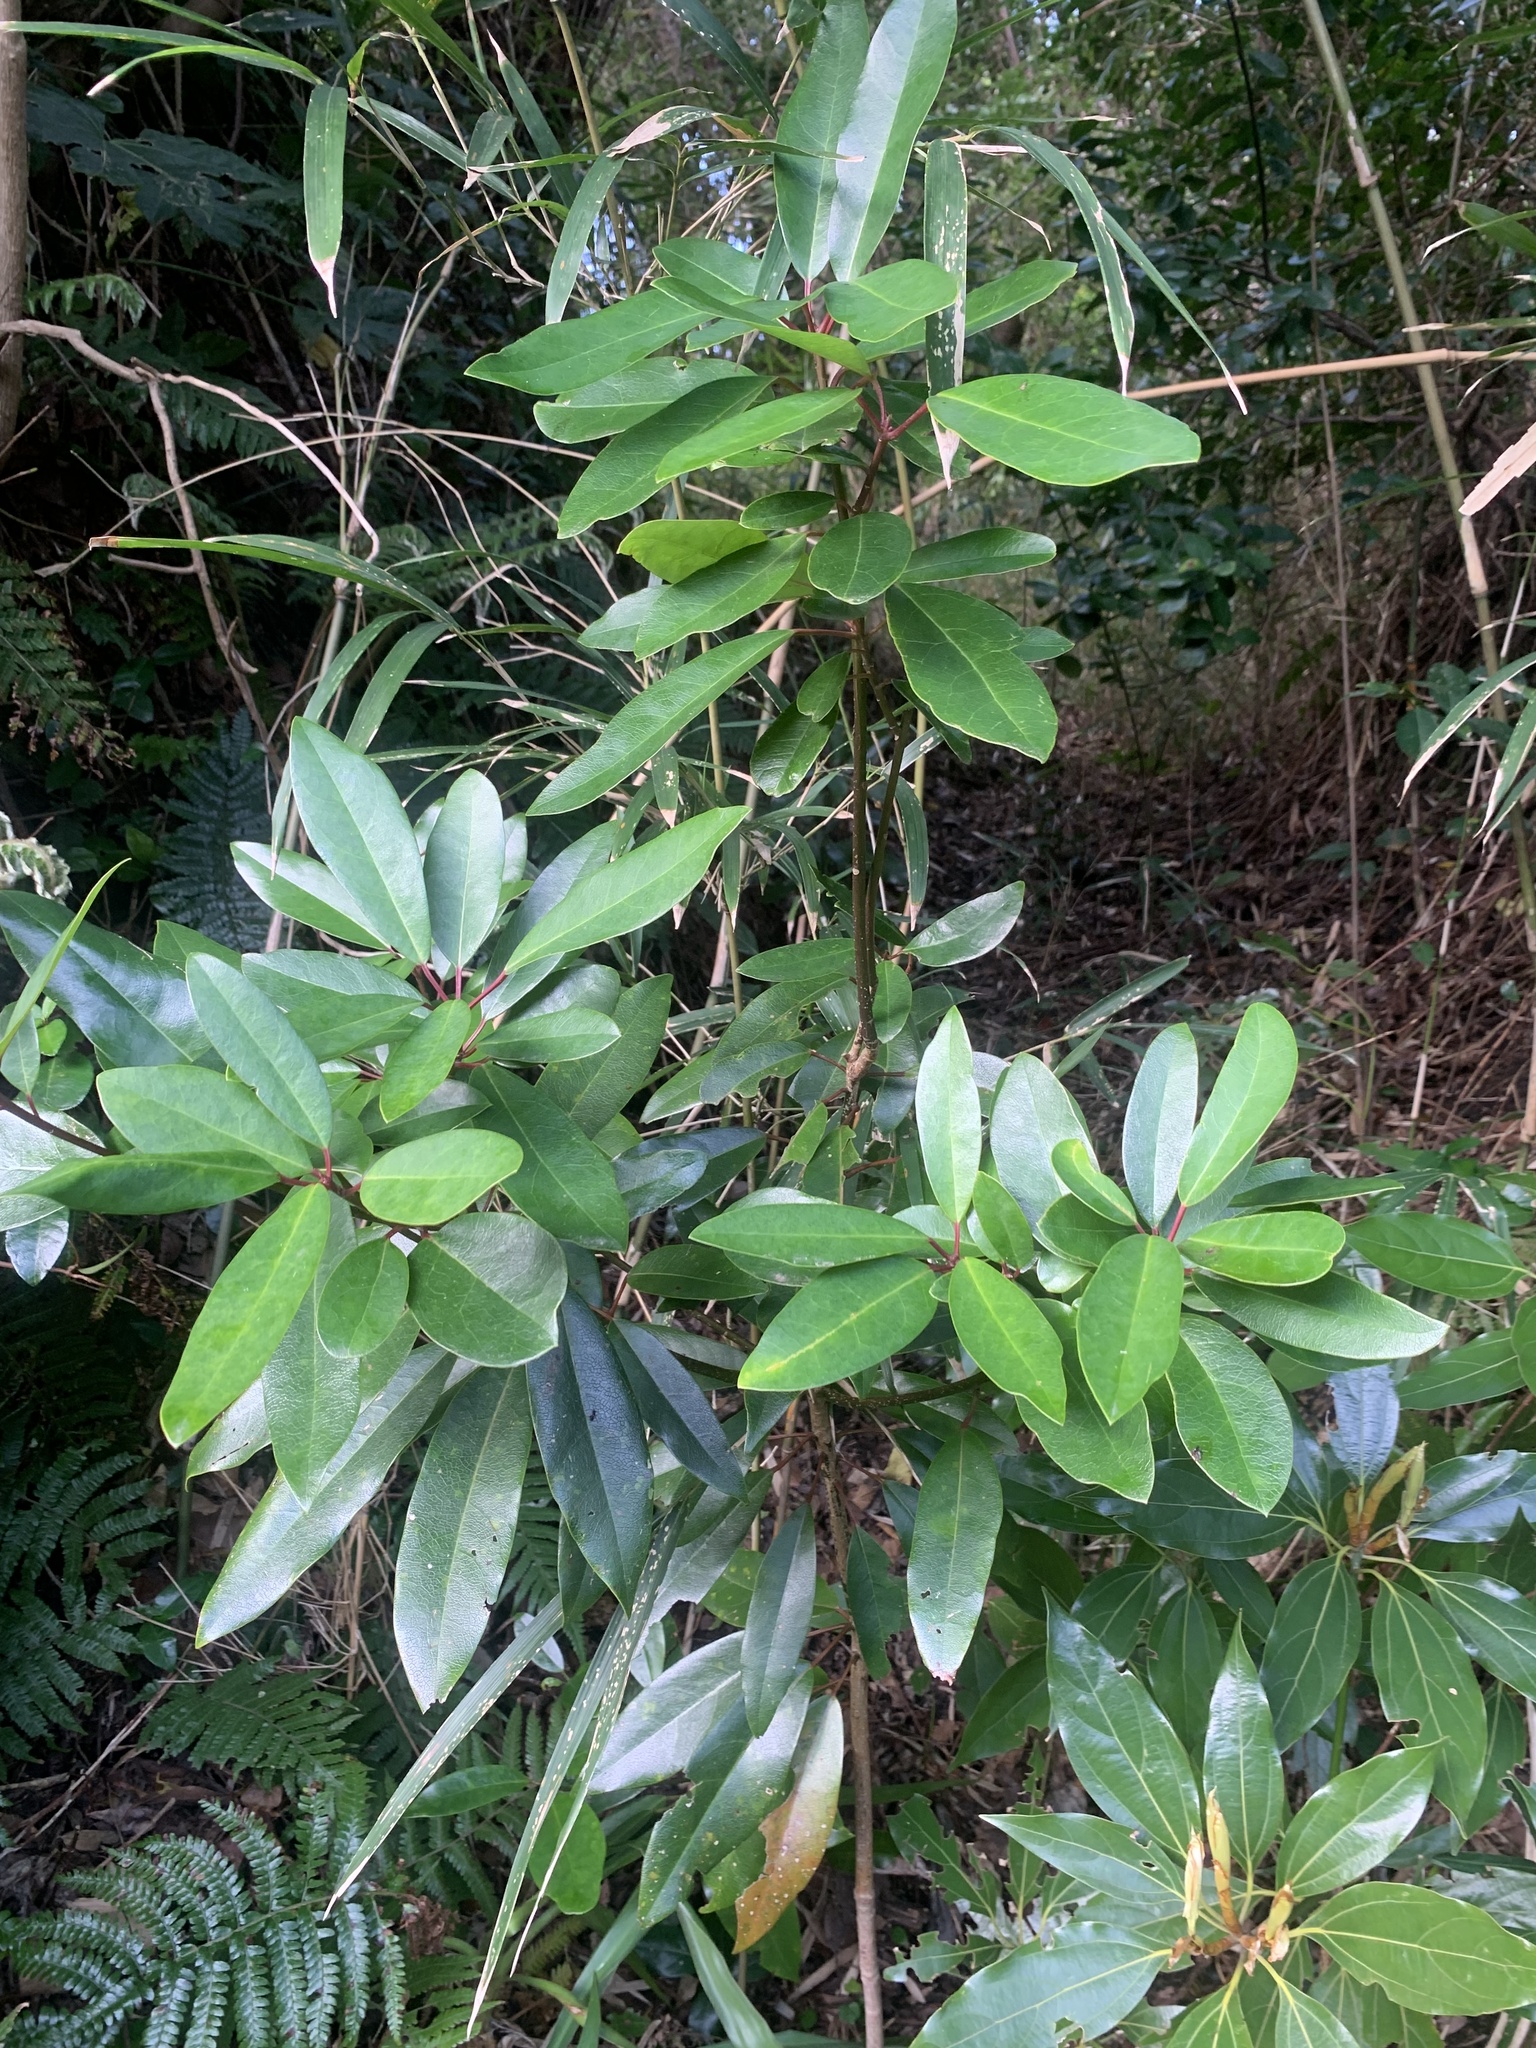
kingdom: Plantae
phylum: Tracheophyta
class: Magnoliopsida
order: Saxifragales
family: Daphniphyllaceae
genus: Daphniphyllum
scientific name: Daphniphyllum teijsmannii
